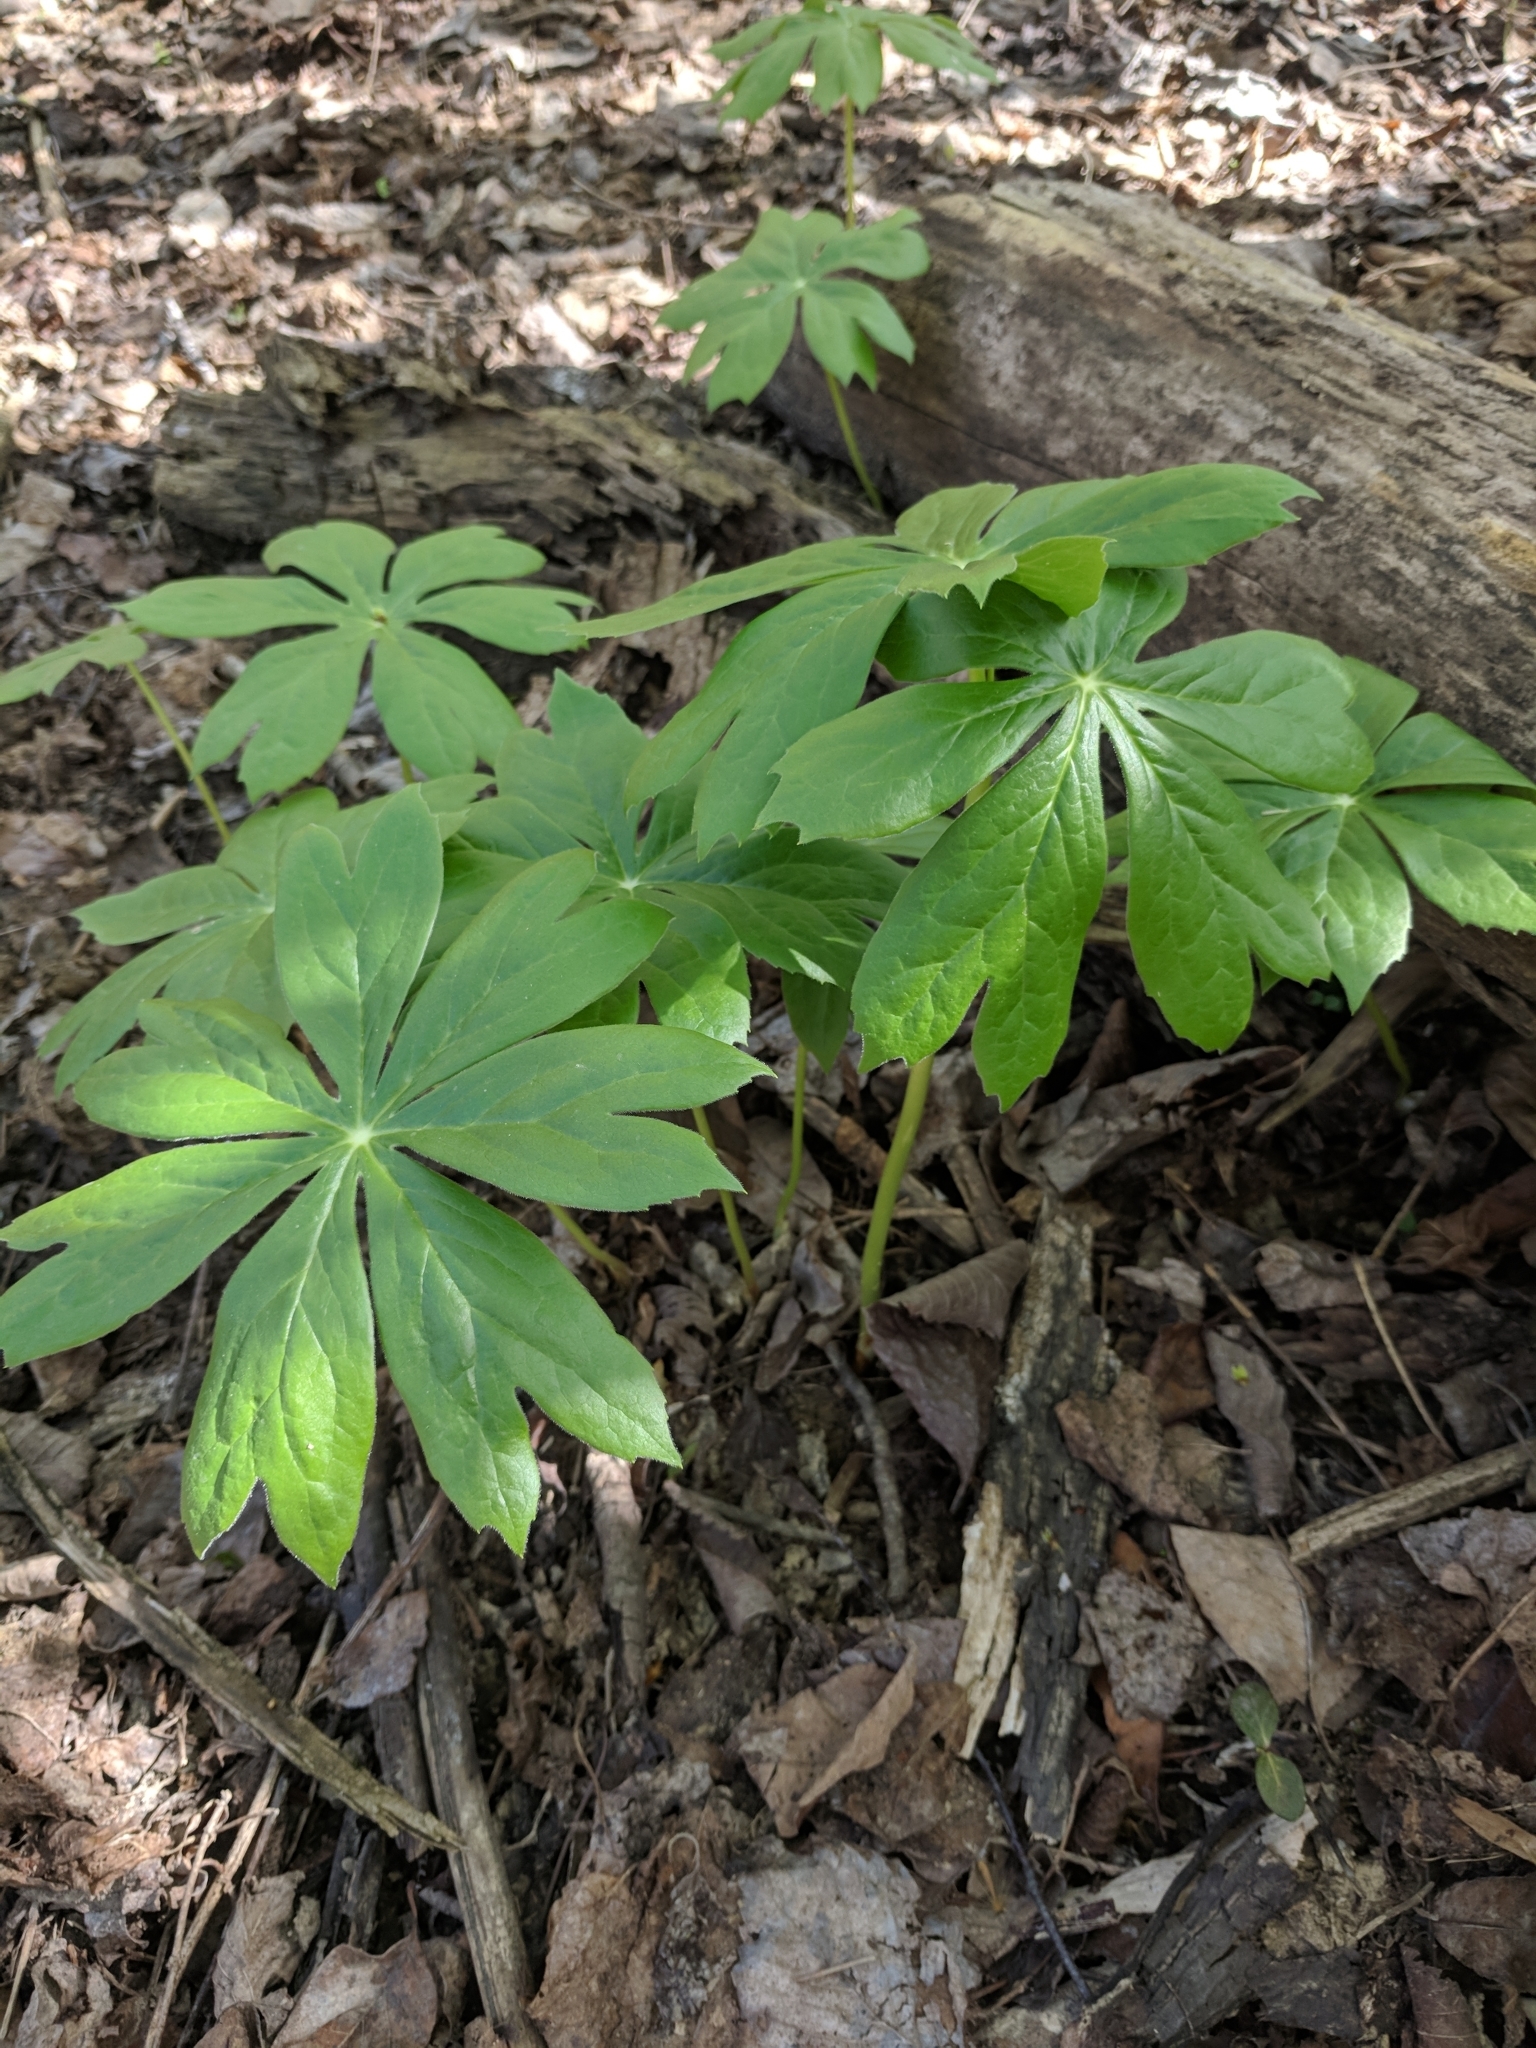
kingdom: Plantae
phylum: Tracheophyta
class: Magnoliopsida
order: Ranunculales
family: Berberidaceae
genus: Podophyllum
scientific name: Podophyllum peltatum
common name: Wild mandrake
